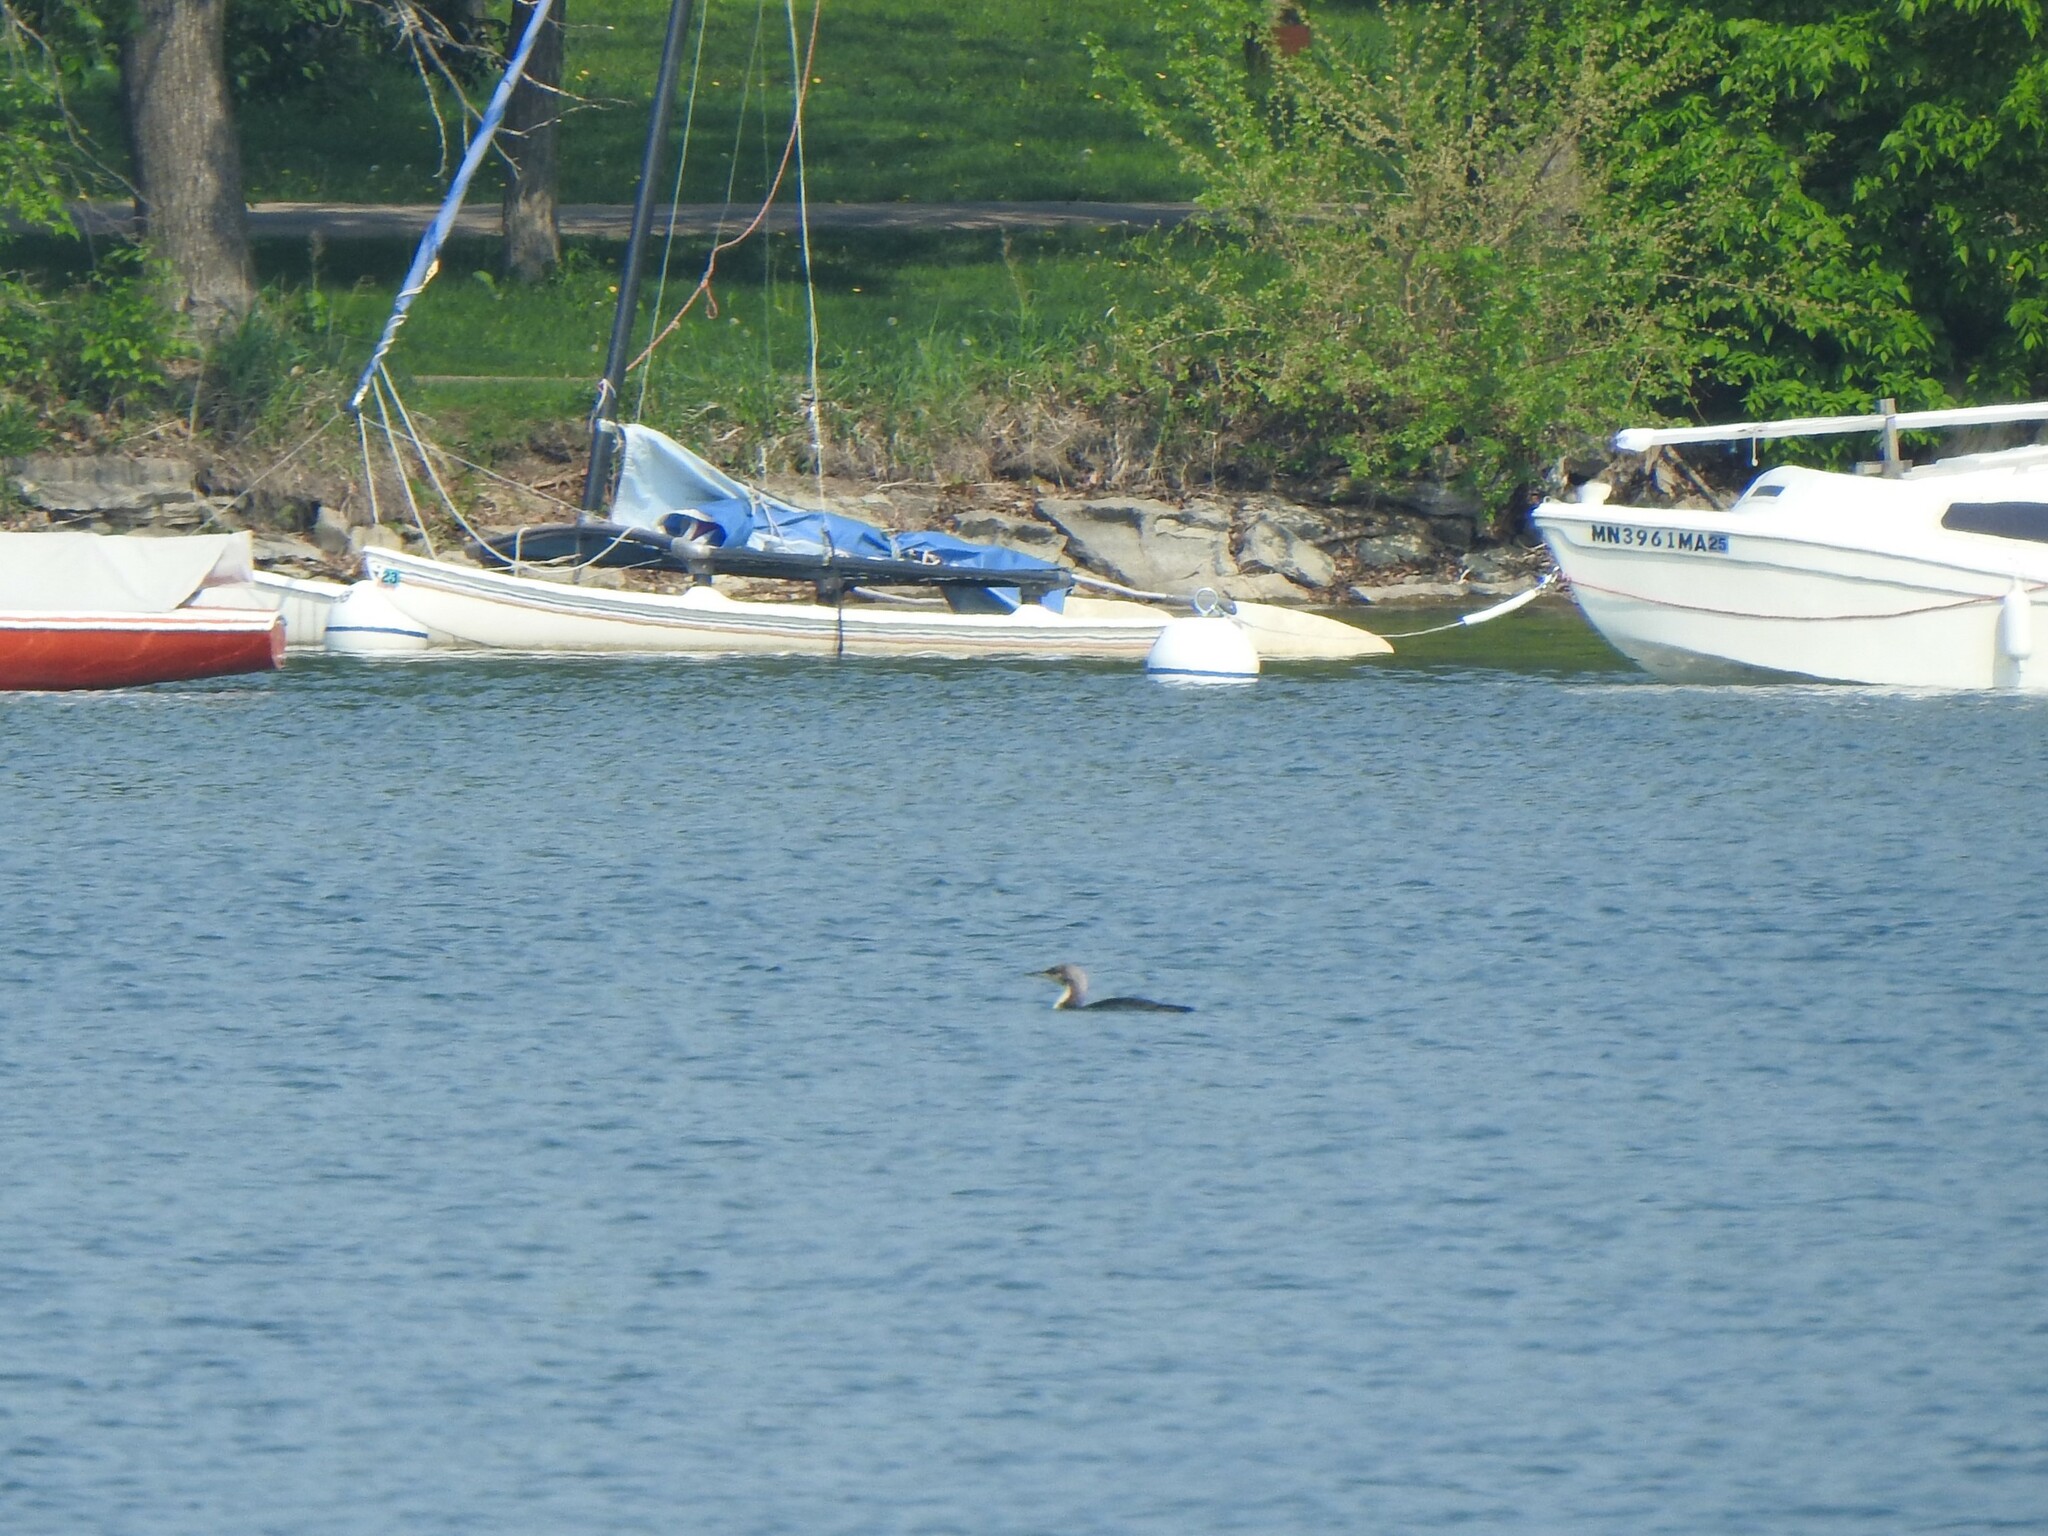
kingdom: Animalia
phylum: Chordata
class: Aves
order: Gaviiformes
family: Gaviidae
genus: Gavia
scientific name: Gavia pacifica
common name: Pacific loon
